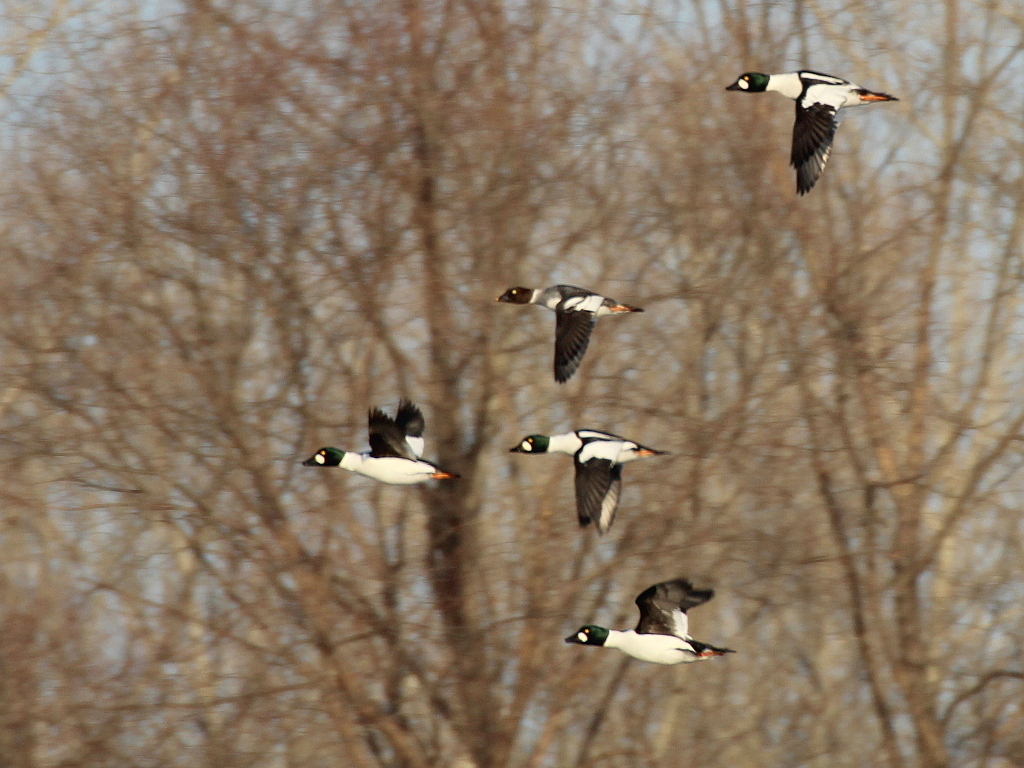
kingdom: Animalia
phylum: Chordata
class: Aves
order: Anseriformes
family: Anatidae
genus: Bucephala
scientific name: Bucephala clangula
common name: Common goldeneye
